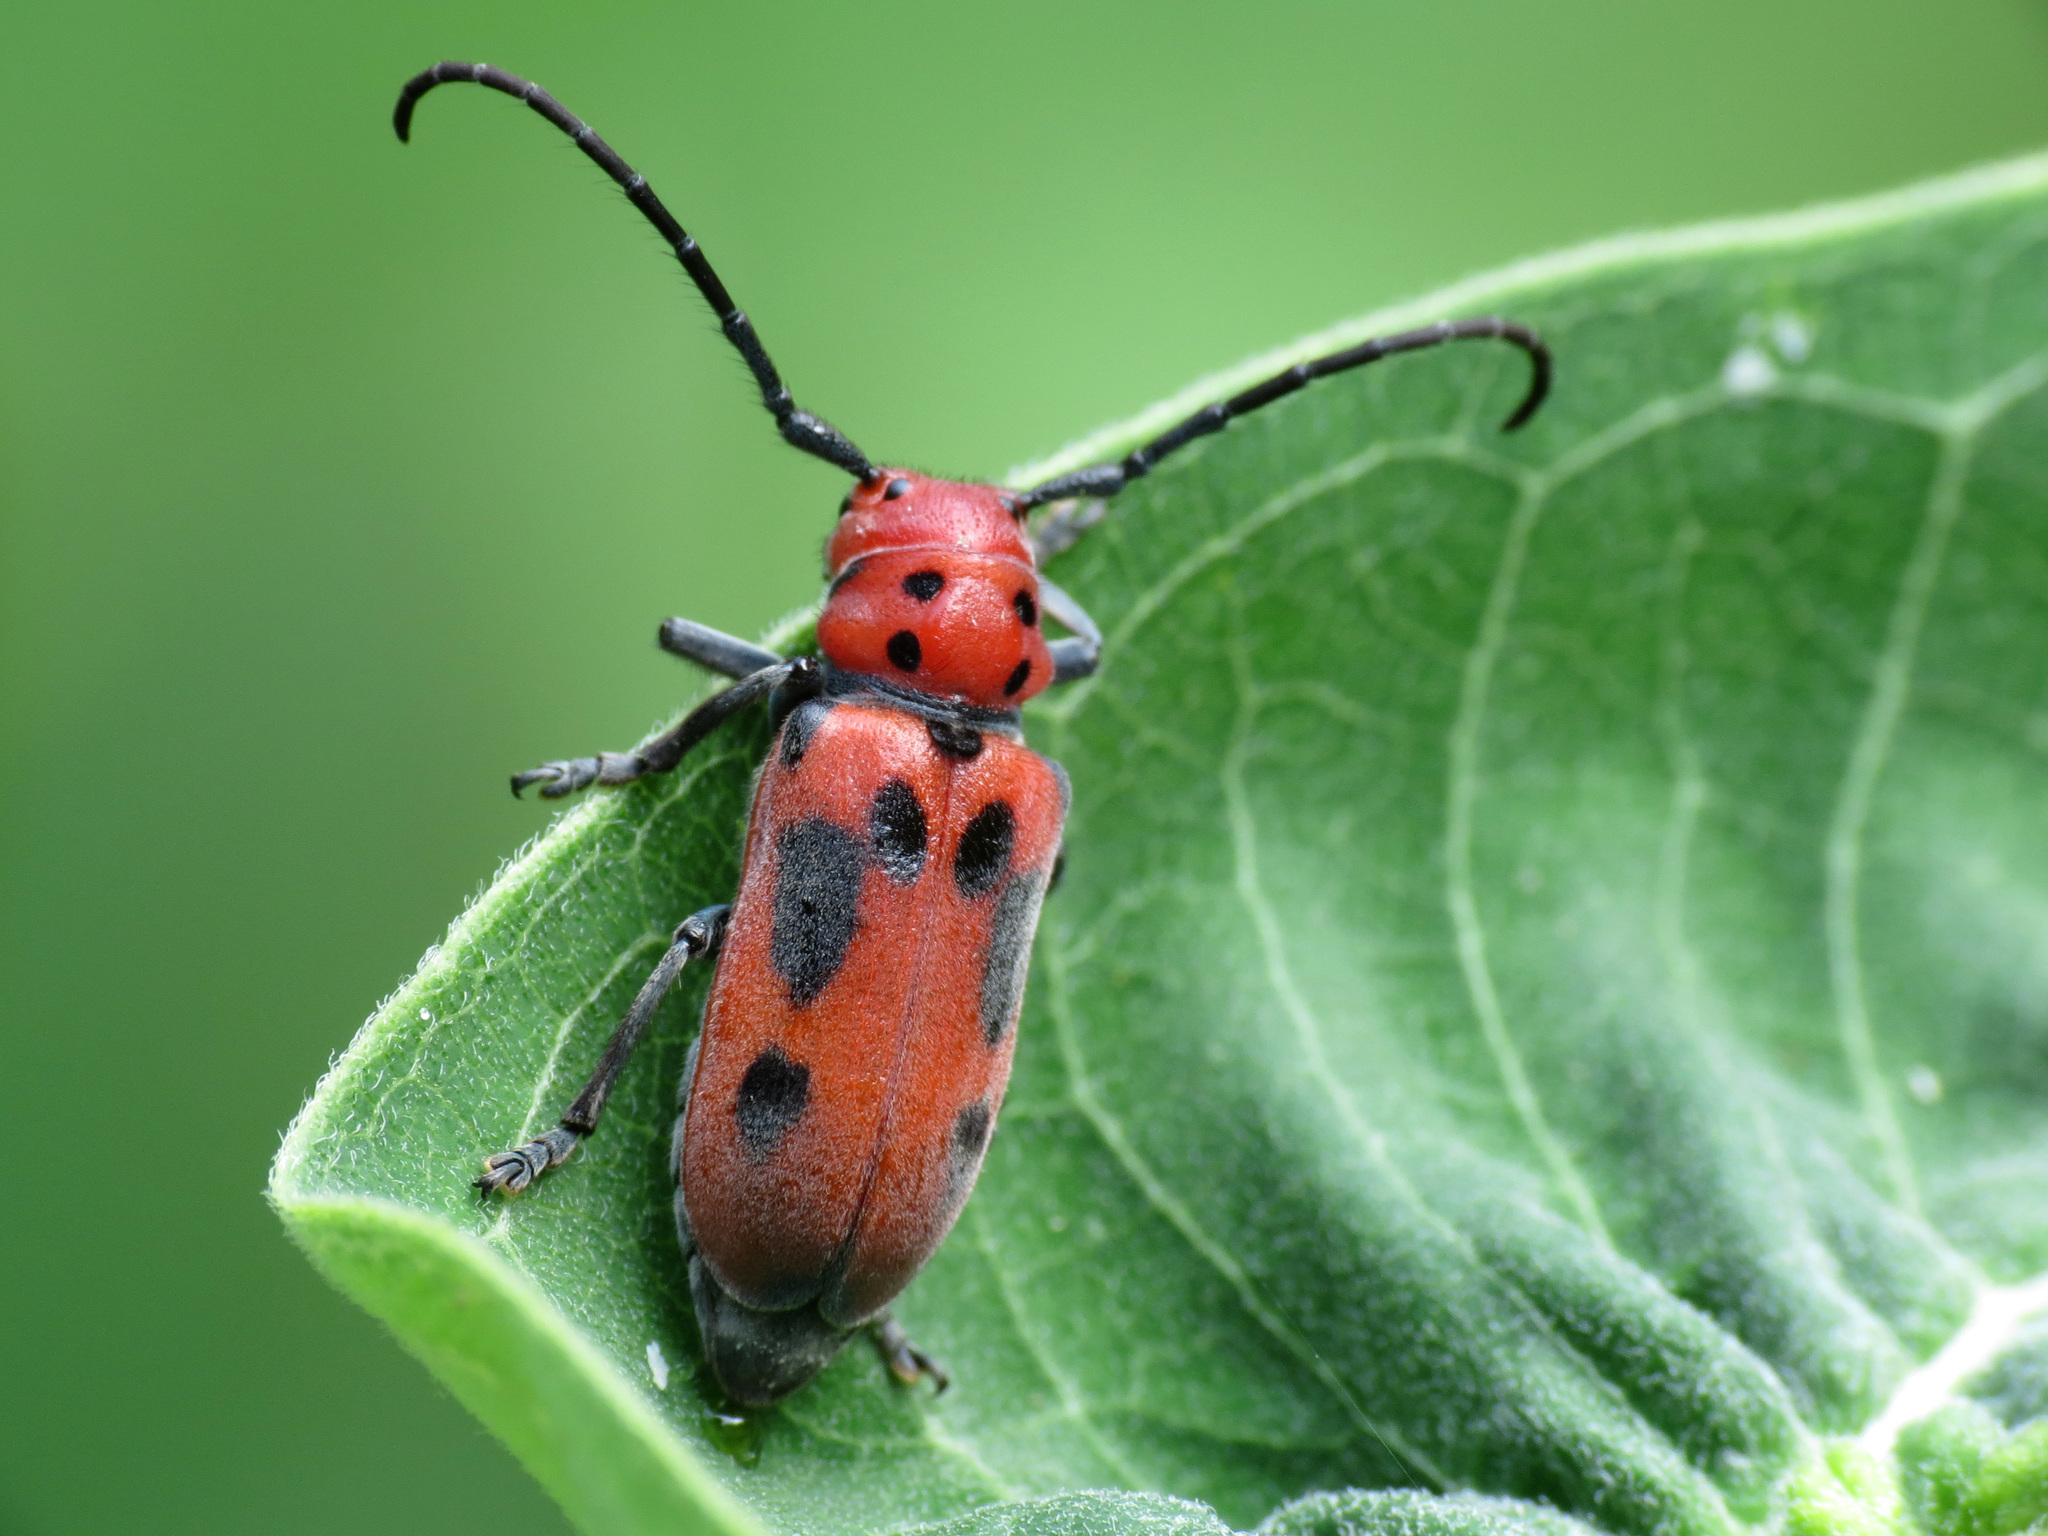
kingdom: Animalia
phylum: Arthropoda
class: Insecta
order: Coleoptera
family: Cerambycidae
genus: Tetraopes
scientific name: Tetraopes tetrophthalmus
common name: Red milkweed beetle
